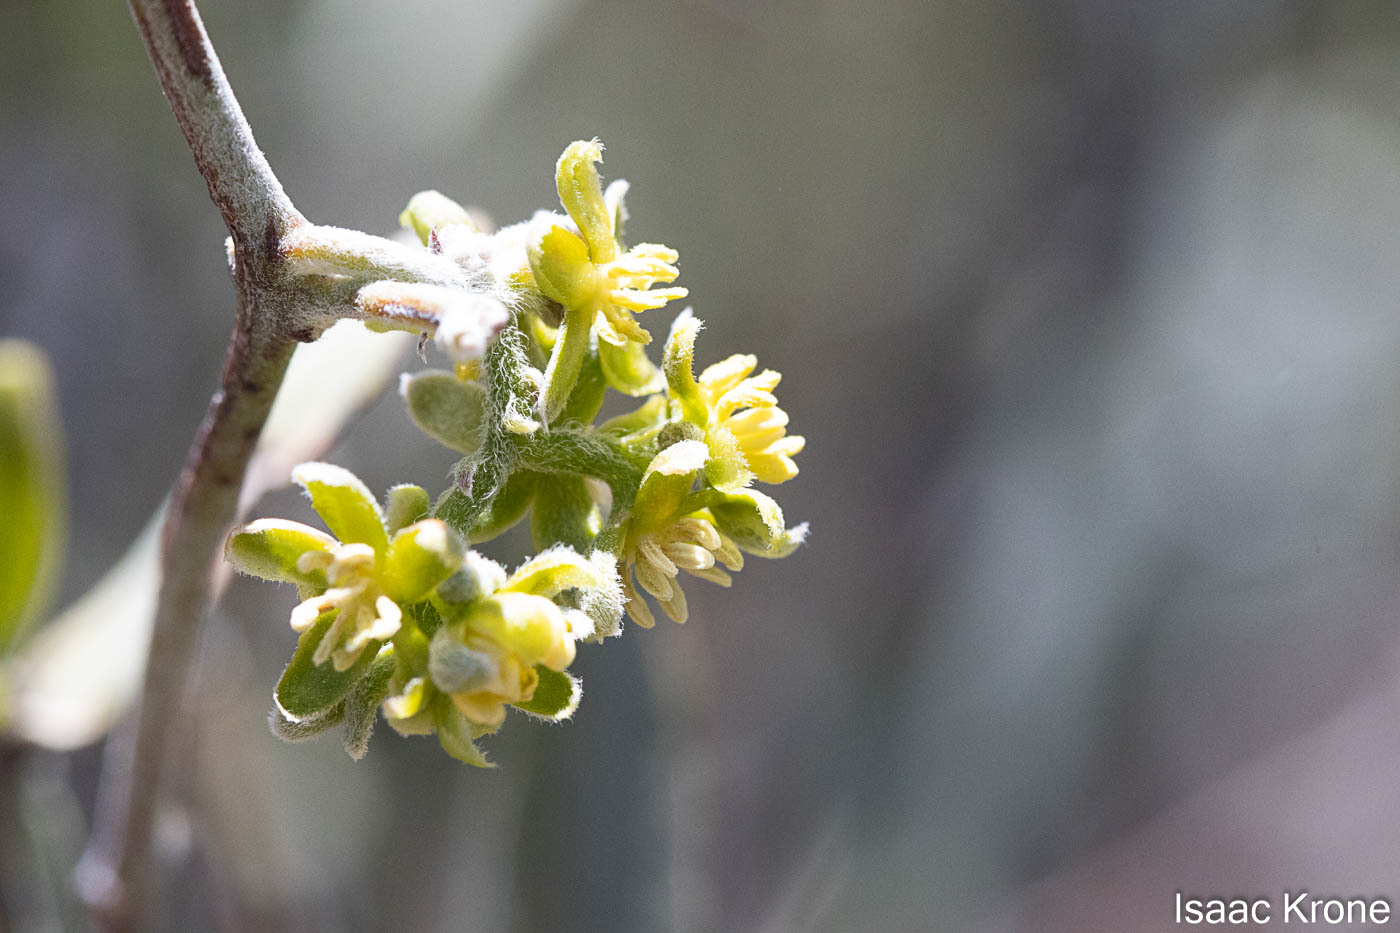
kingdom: Plantae
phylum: Tracheophyta
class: Magnoliopsida
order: Caryophyllales
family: Simmondsiaceae
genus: Simmondsia
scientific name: Simmondsia chinensis
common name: Jojoba
